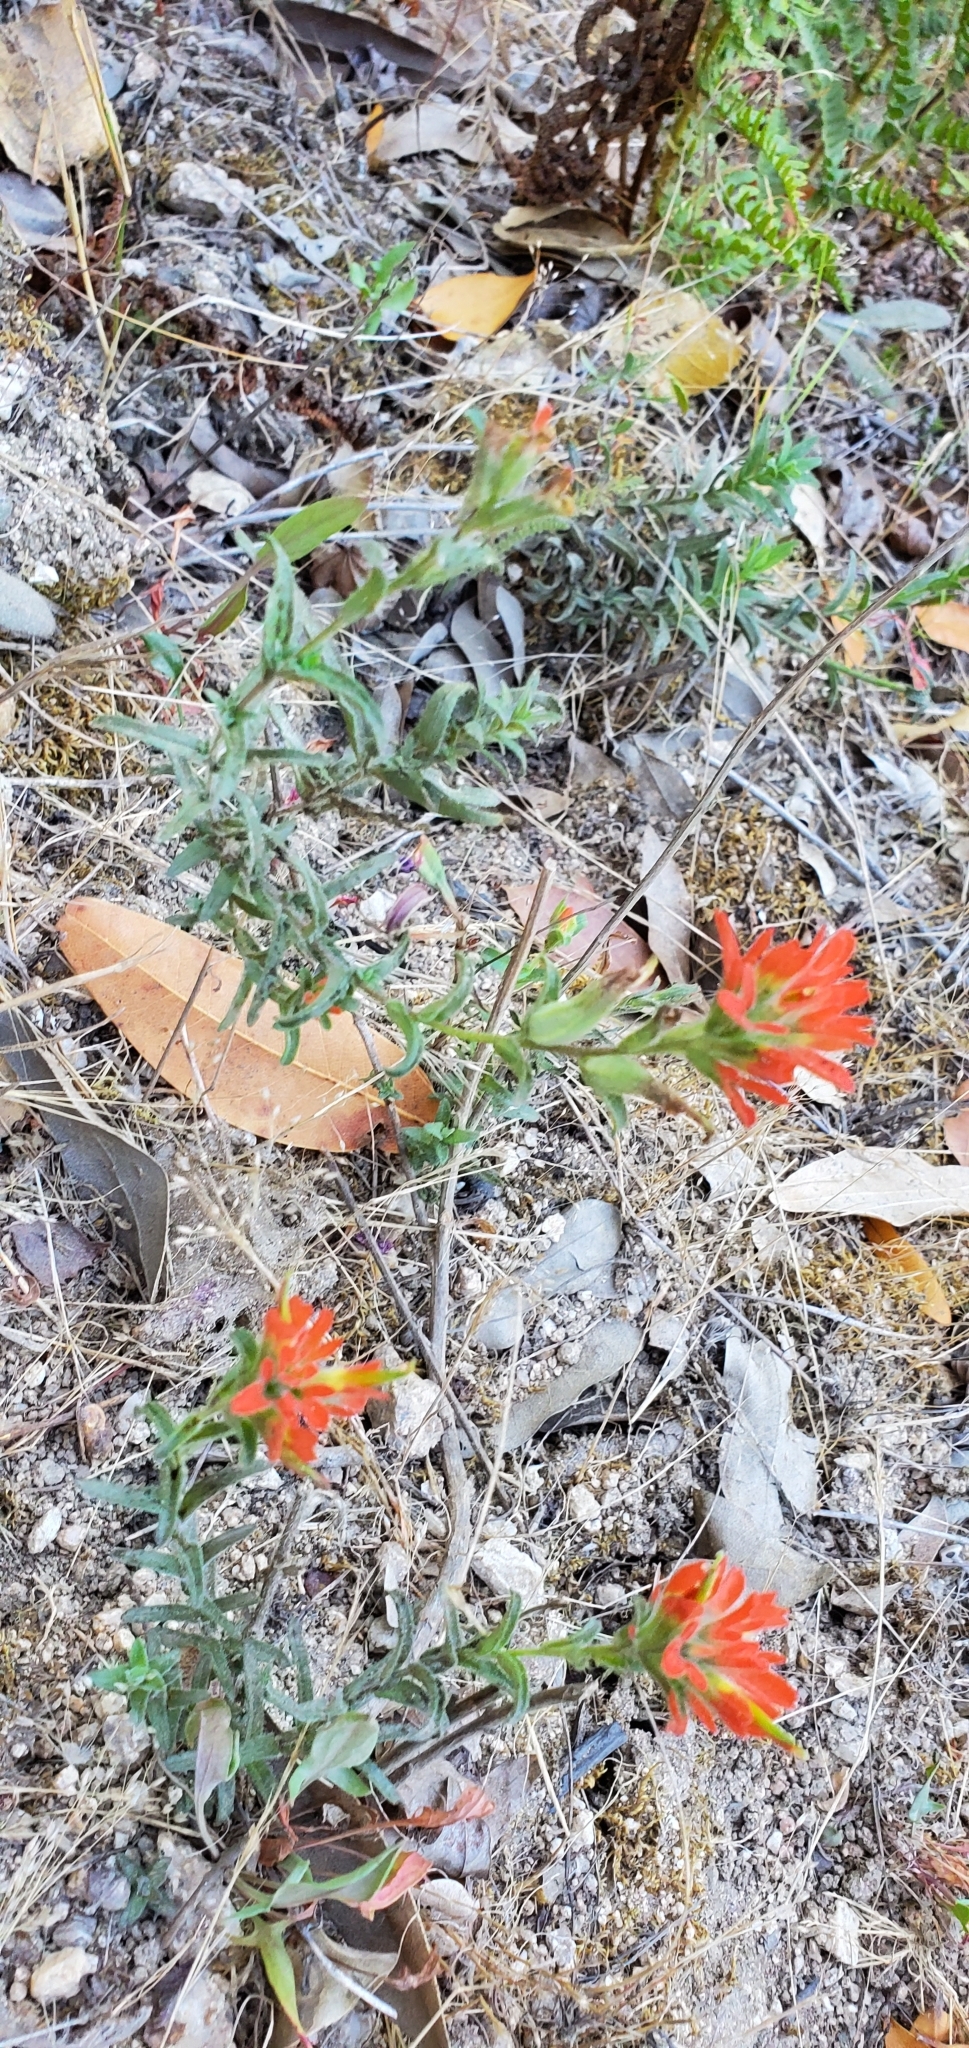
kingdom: Plantae
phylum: Tracheophyta
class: Magnoliopsida
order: Lamiales
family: Orobanchaceae
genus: Castilleja
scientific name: Castilleja foliolosa
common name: Woolly indian paintbrush
